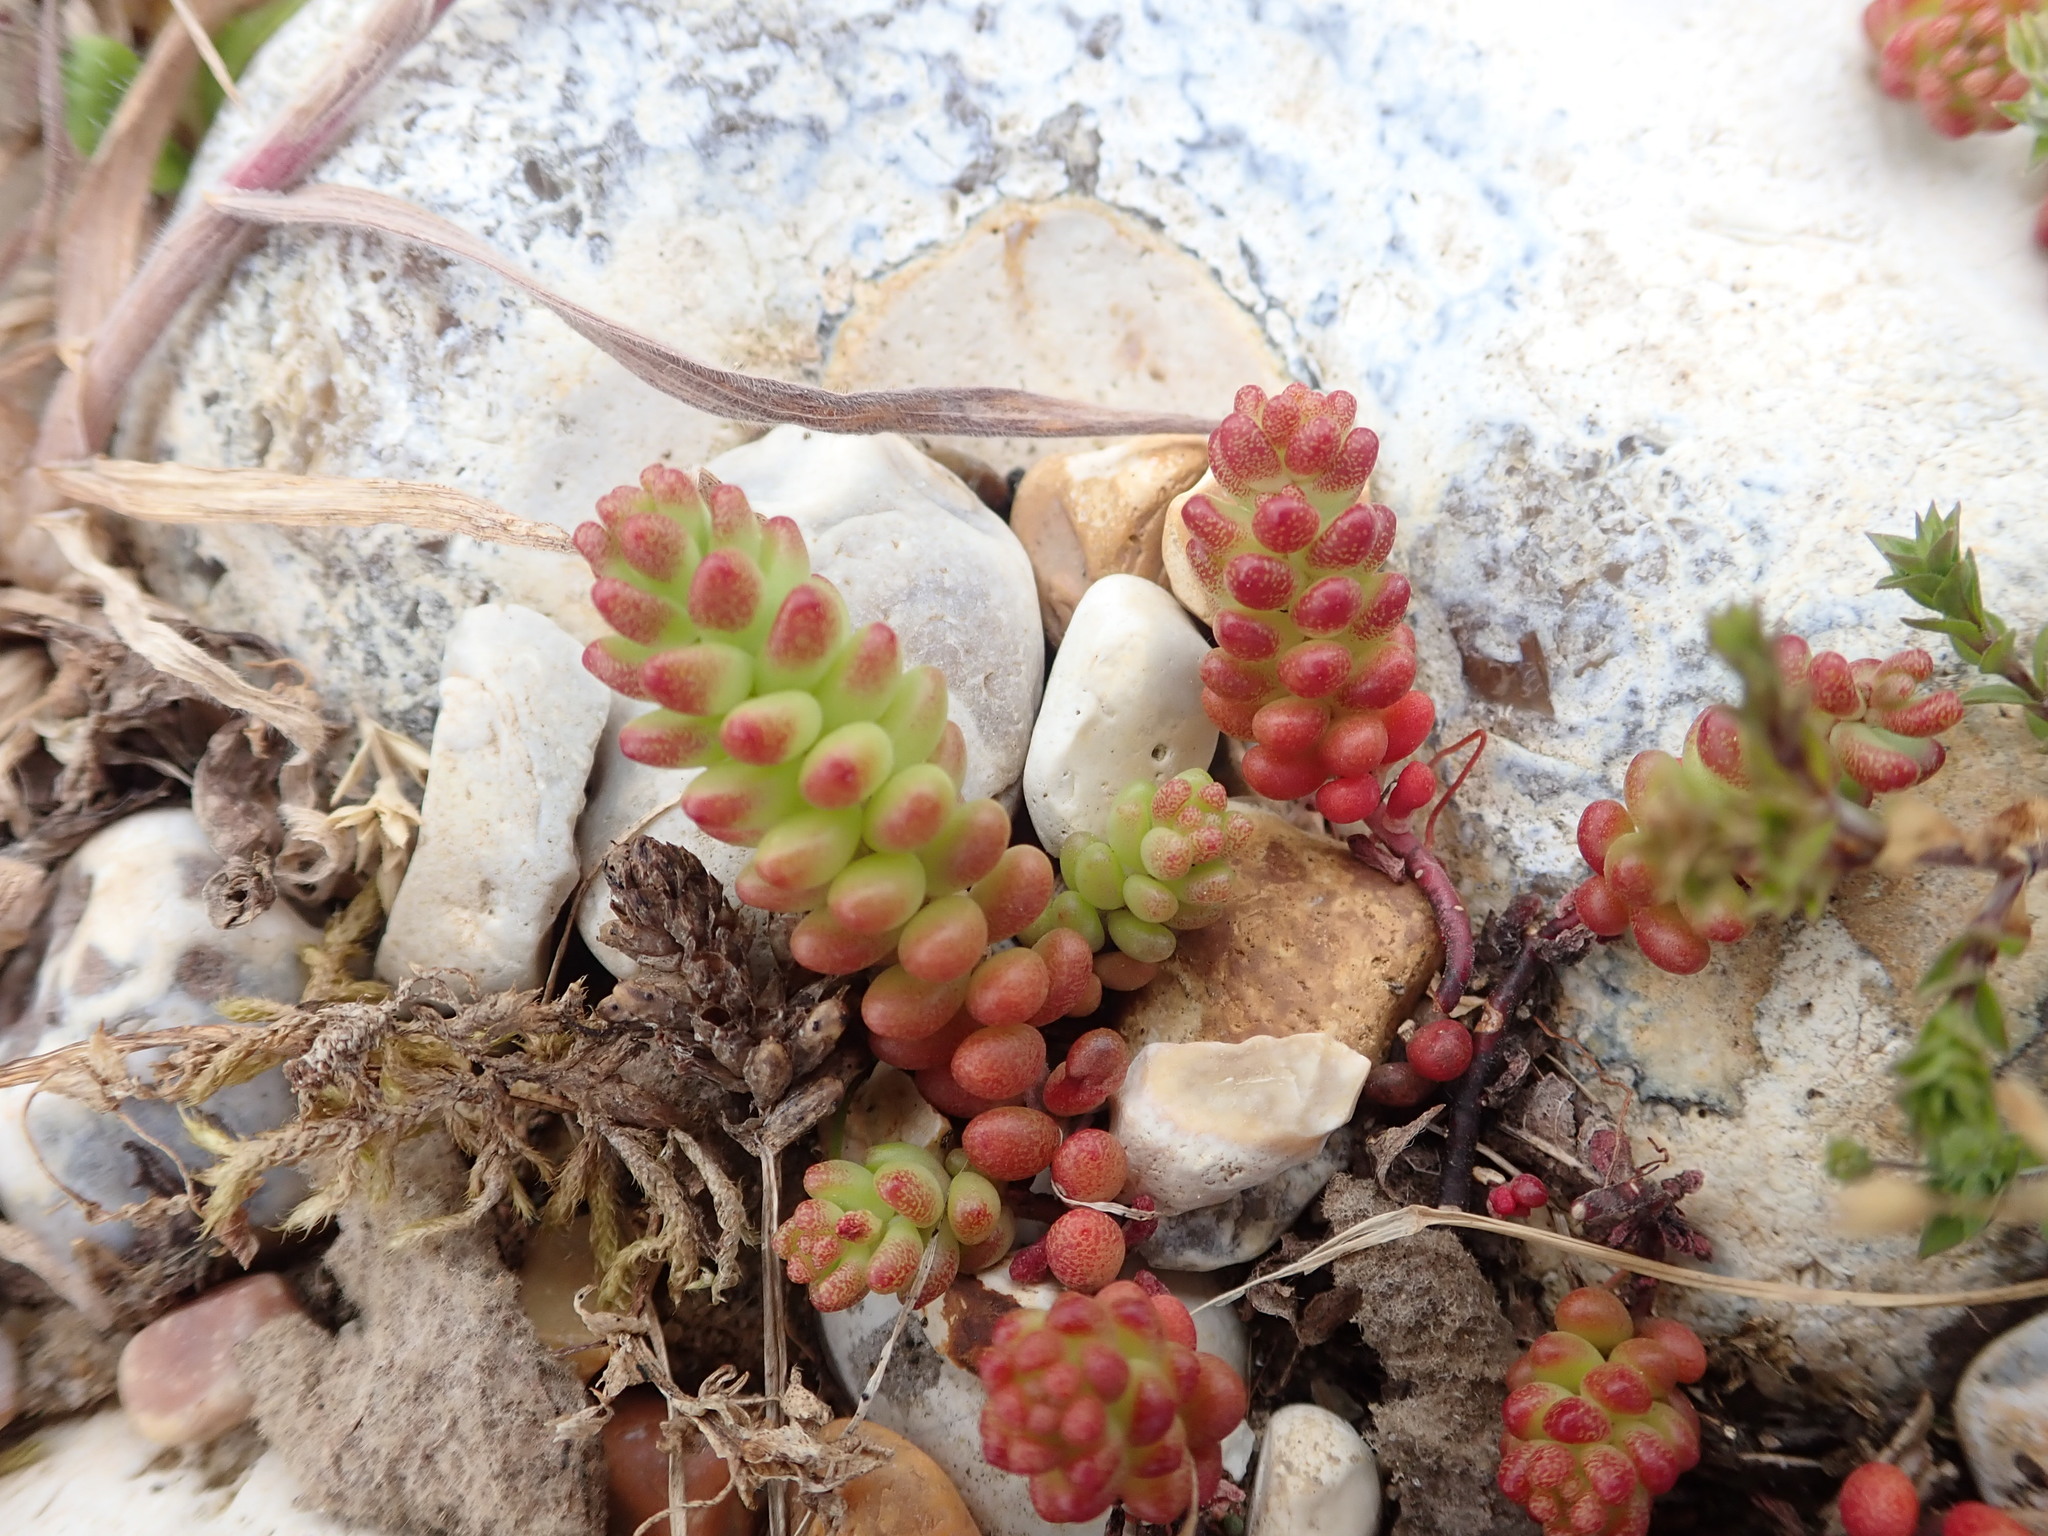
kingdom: Plantae
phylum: Tracheophyta
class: Magnoliopsida
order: Saxifragales
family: Crassulaceae
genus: Sedum
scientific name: Sedum album
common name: White stonecrop
